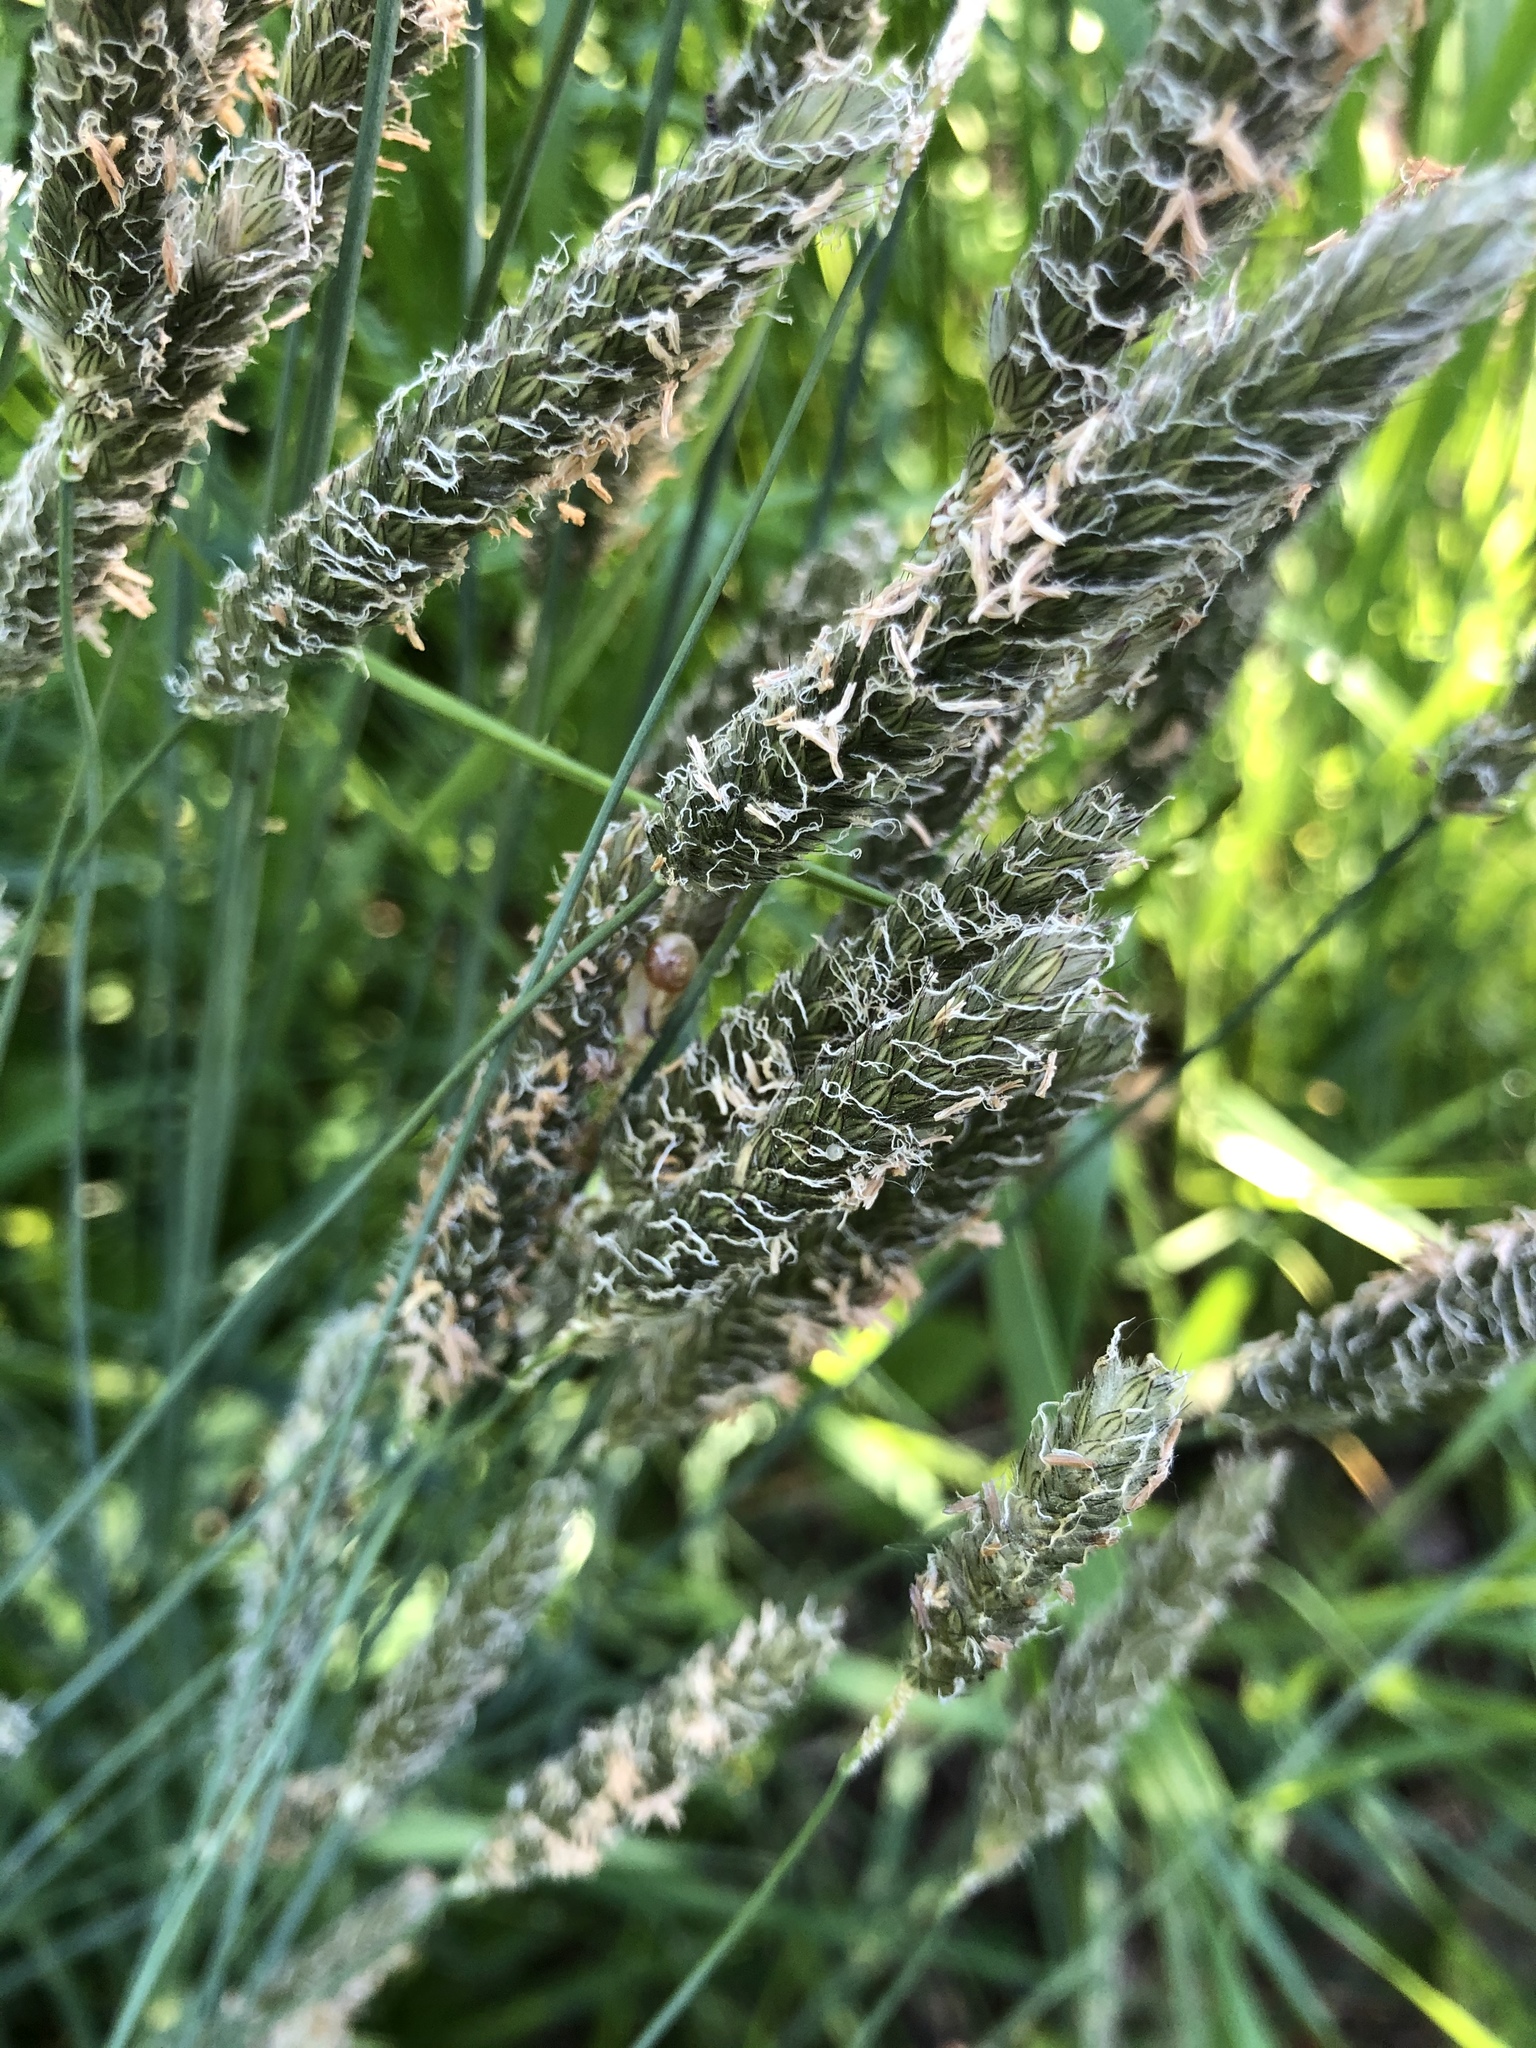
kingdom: Plantae
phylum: Tracheophyta
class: Liliopsida
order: Poales
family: Poaceae
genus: Alopecurus
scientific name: Alopecurus pratensis
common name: Meadow foxtail
